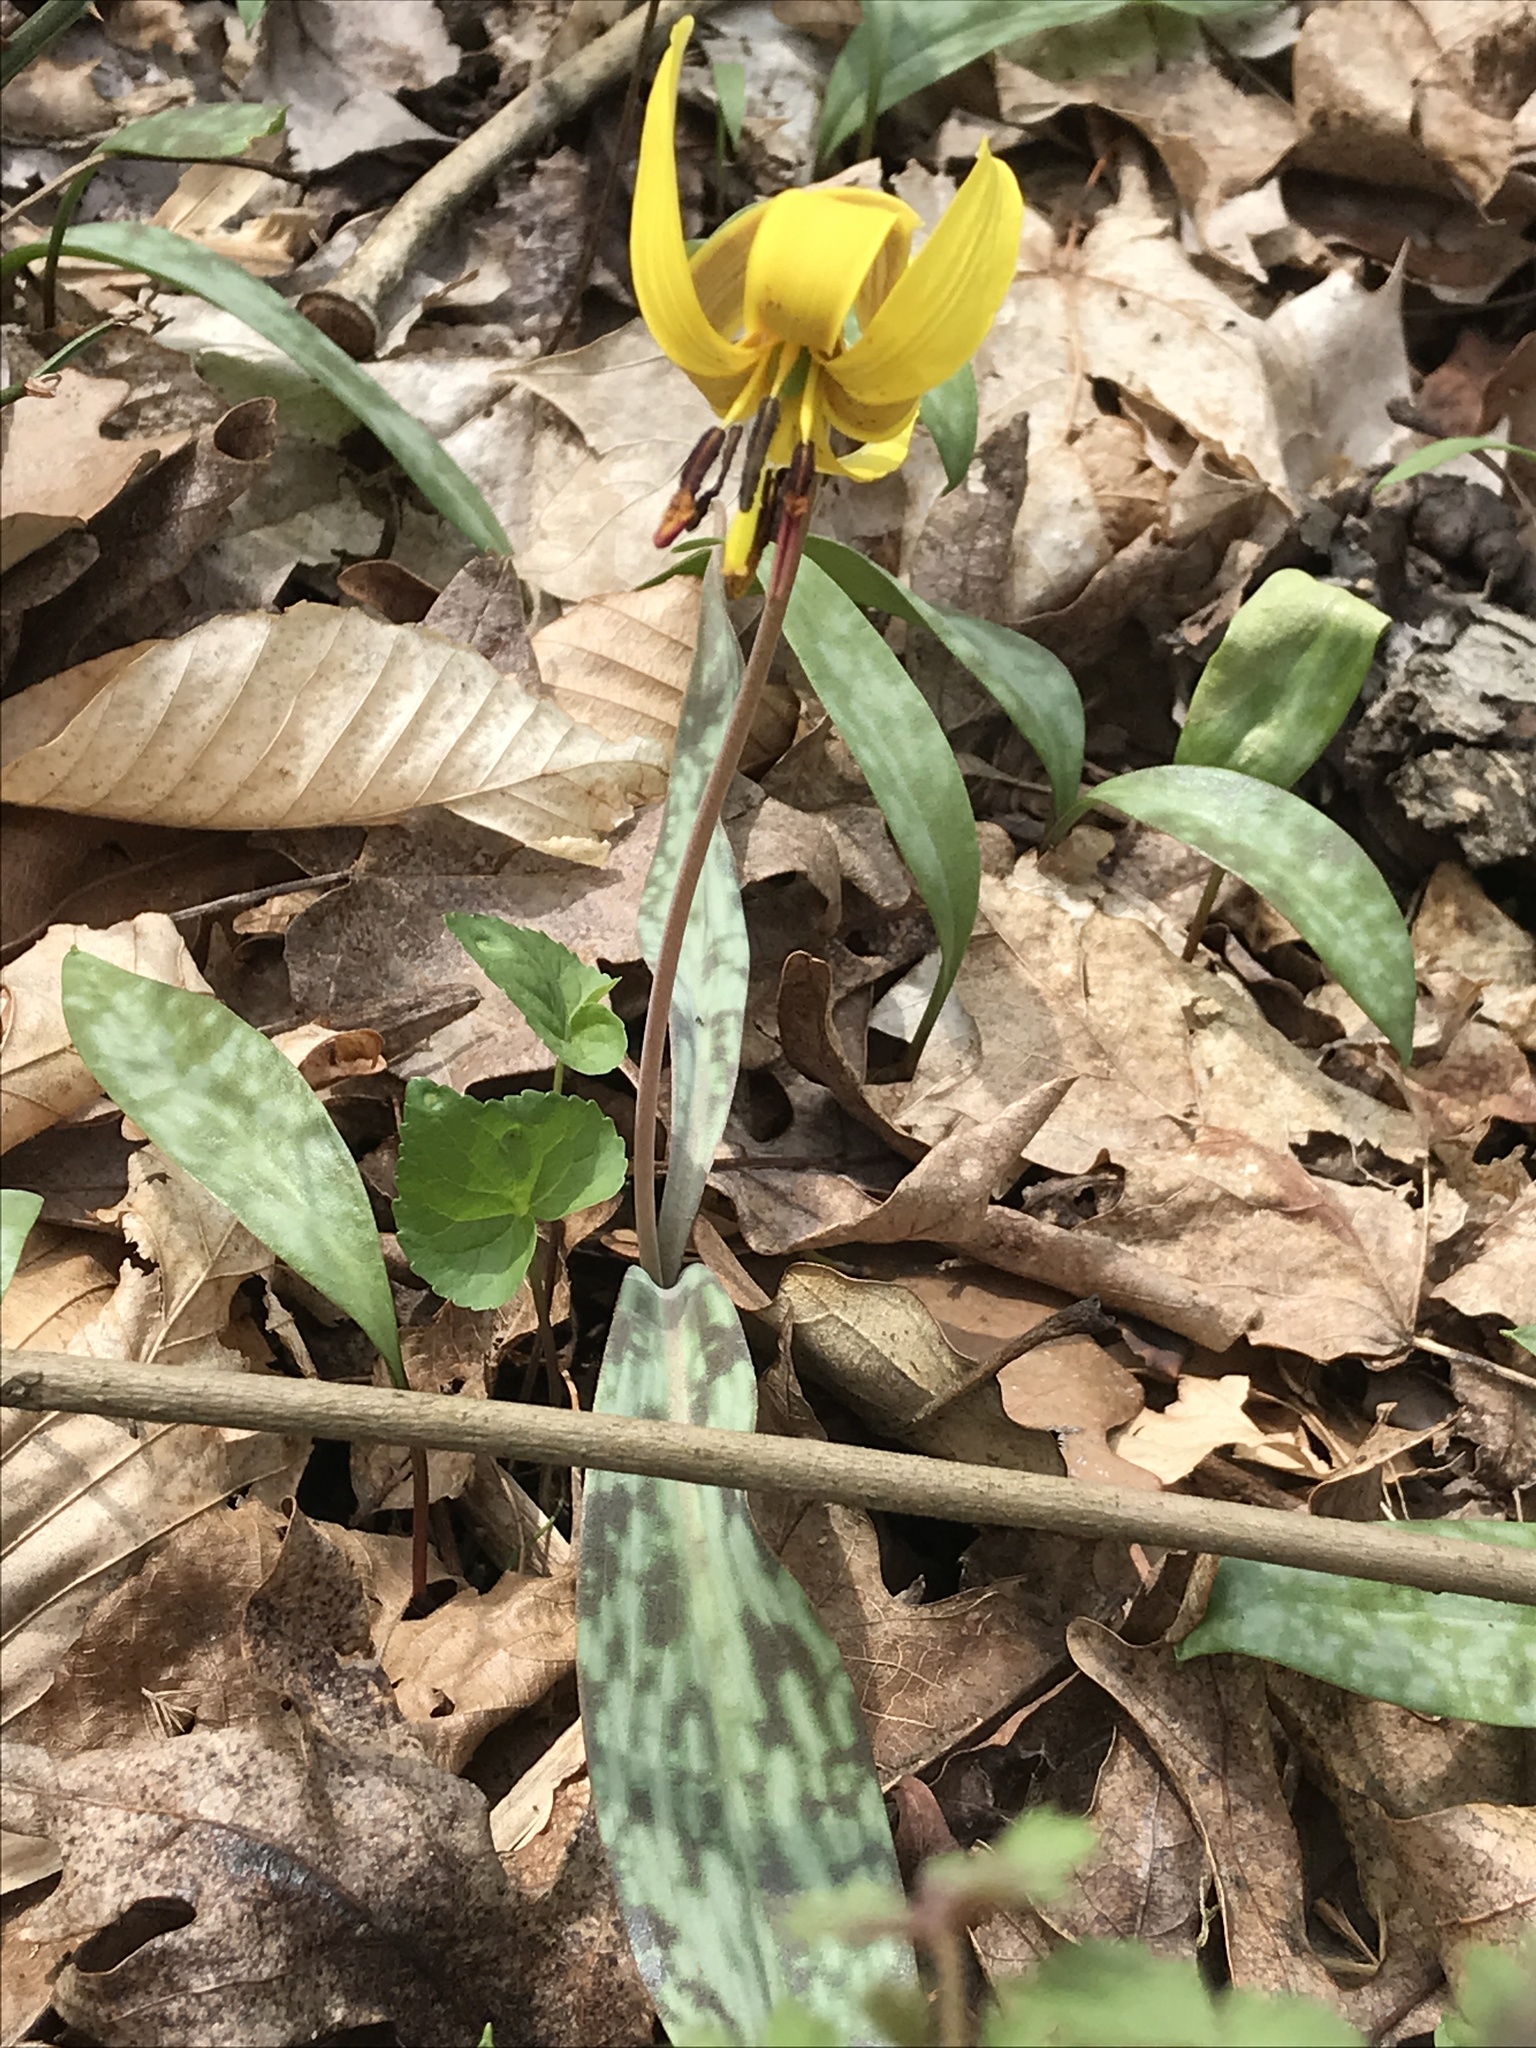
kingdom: Plantae
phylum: Tracheophyta
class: Liliopsida
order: Liliales
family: Liliaceae
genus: Erythronium
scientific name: Erythronium americanum
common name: Yellow adder's-tongue
